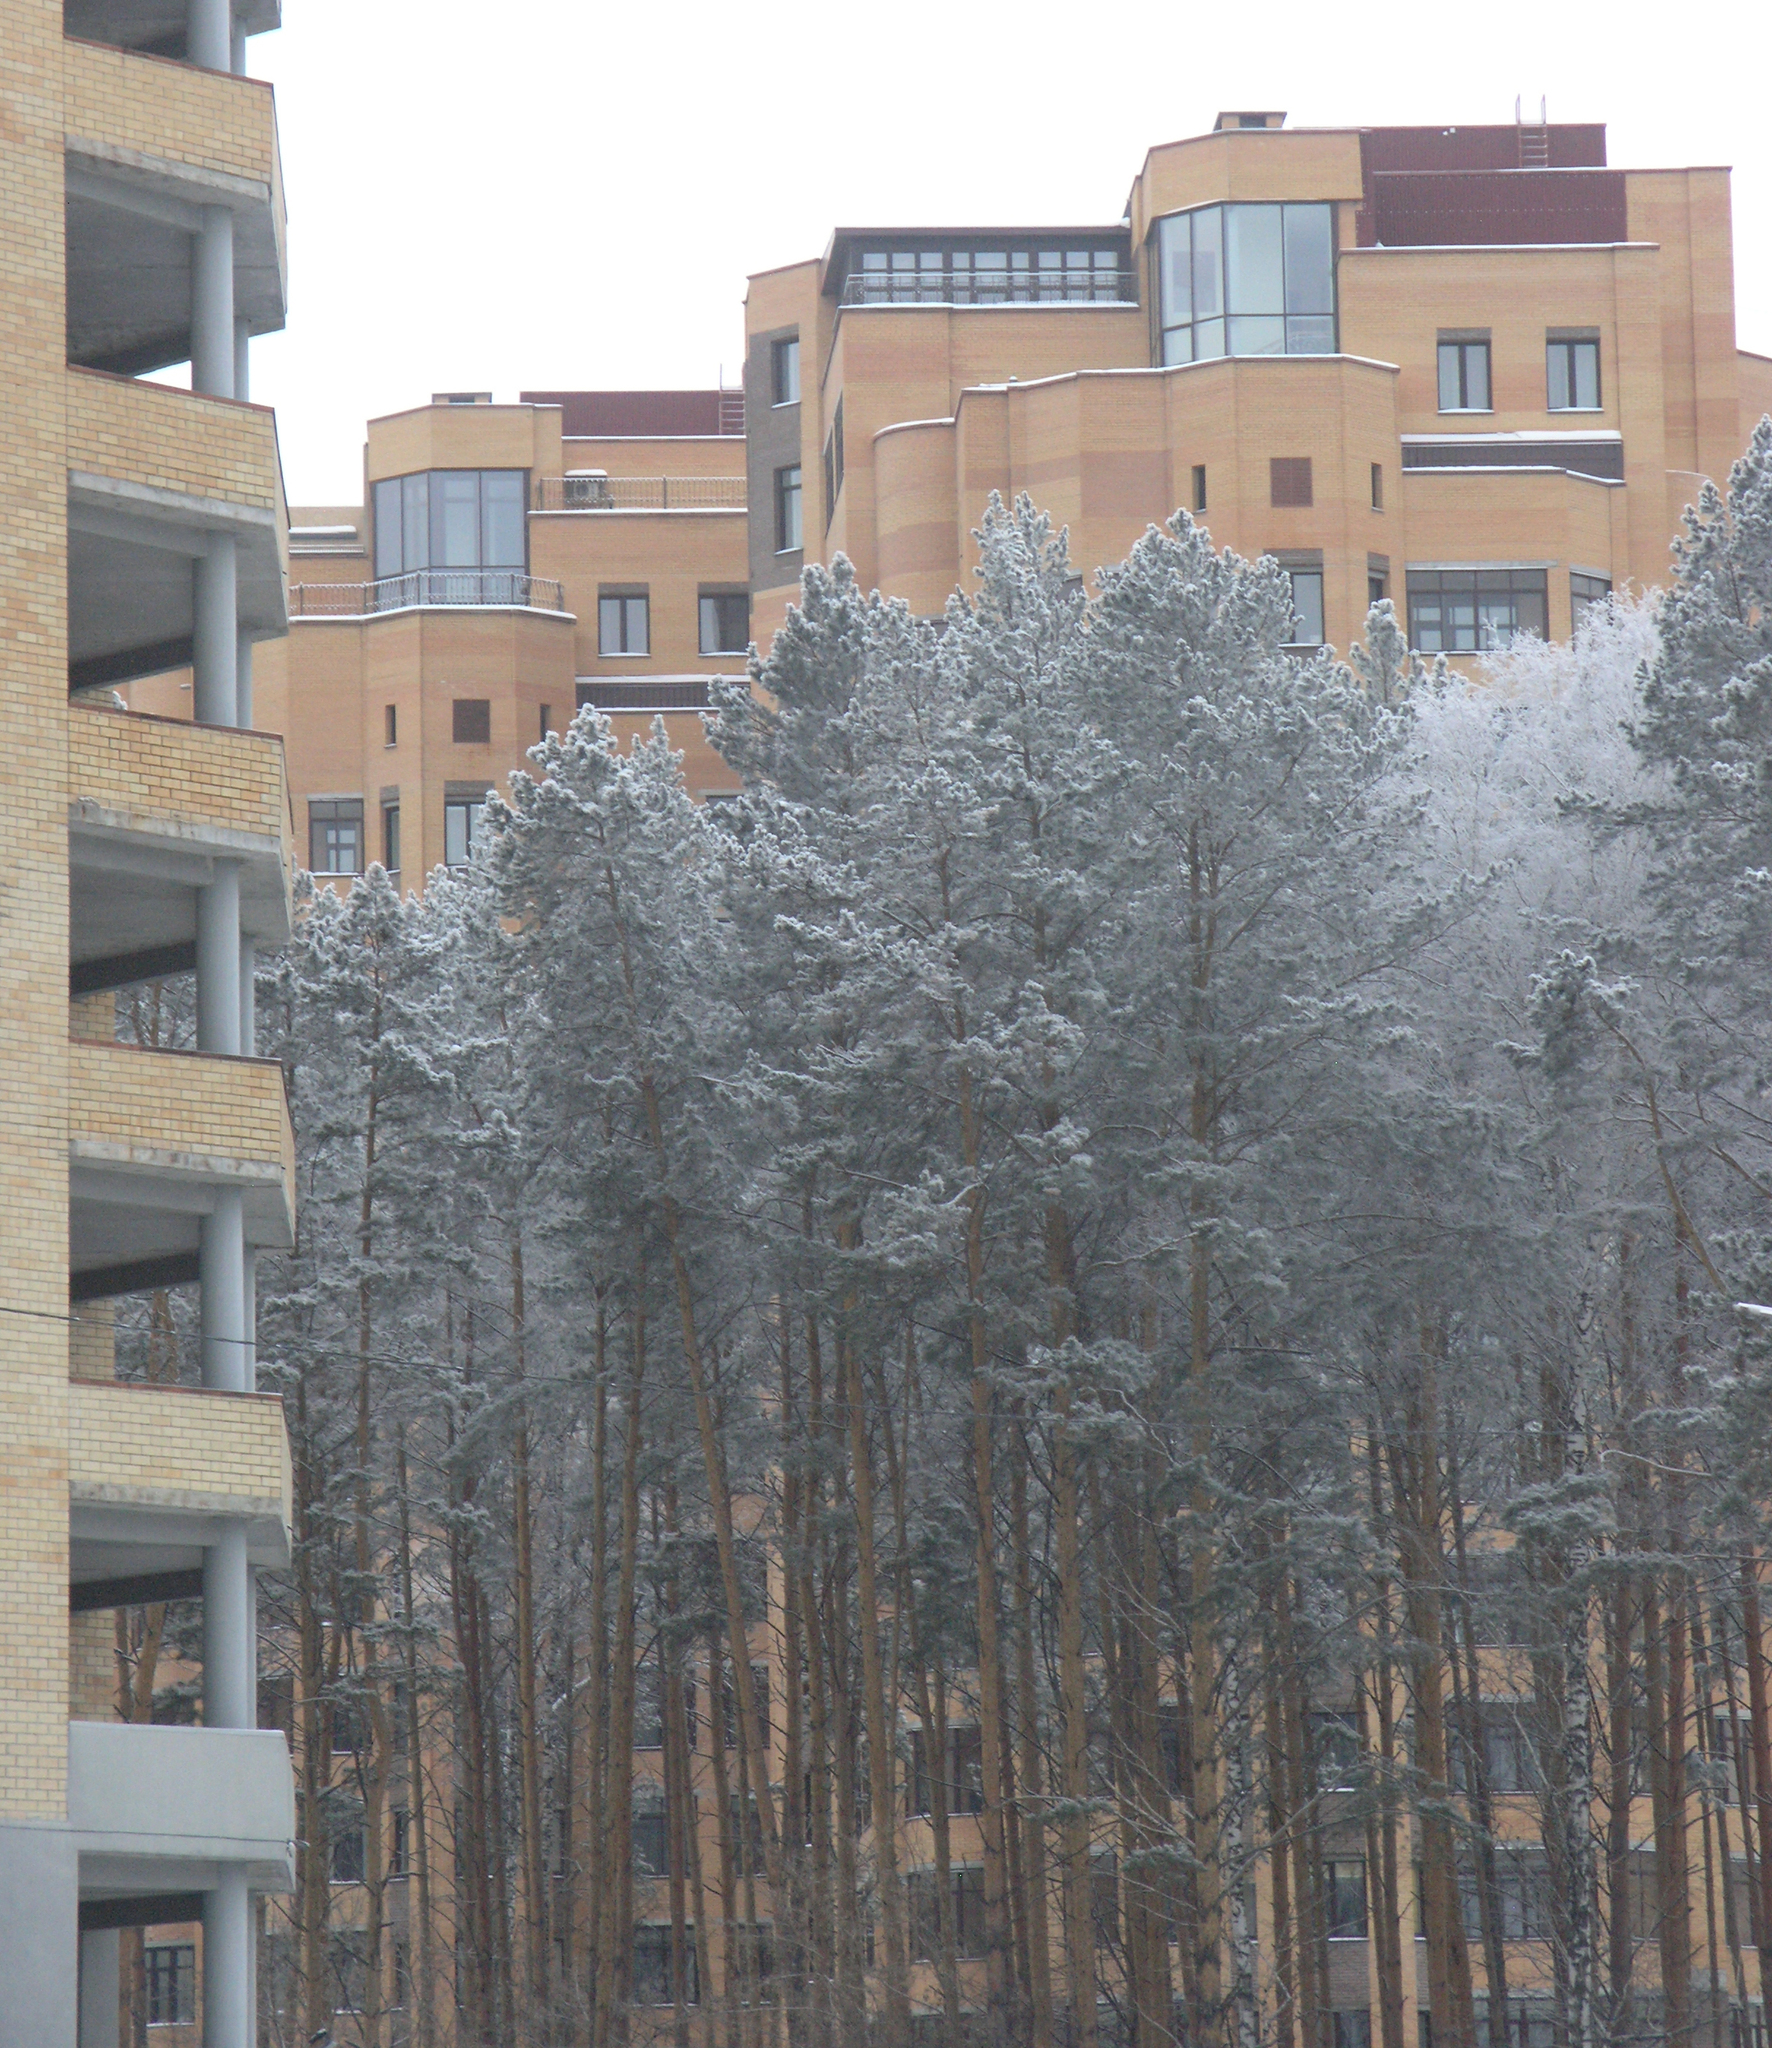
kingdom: Plantae
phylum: Tracheophyta
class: Pinopsida
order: Pinales
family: Pinaceae
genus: Pinus
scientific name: Pinus sylvestris
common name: Scots pine
